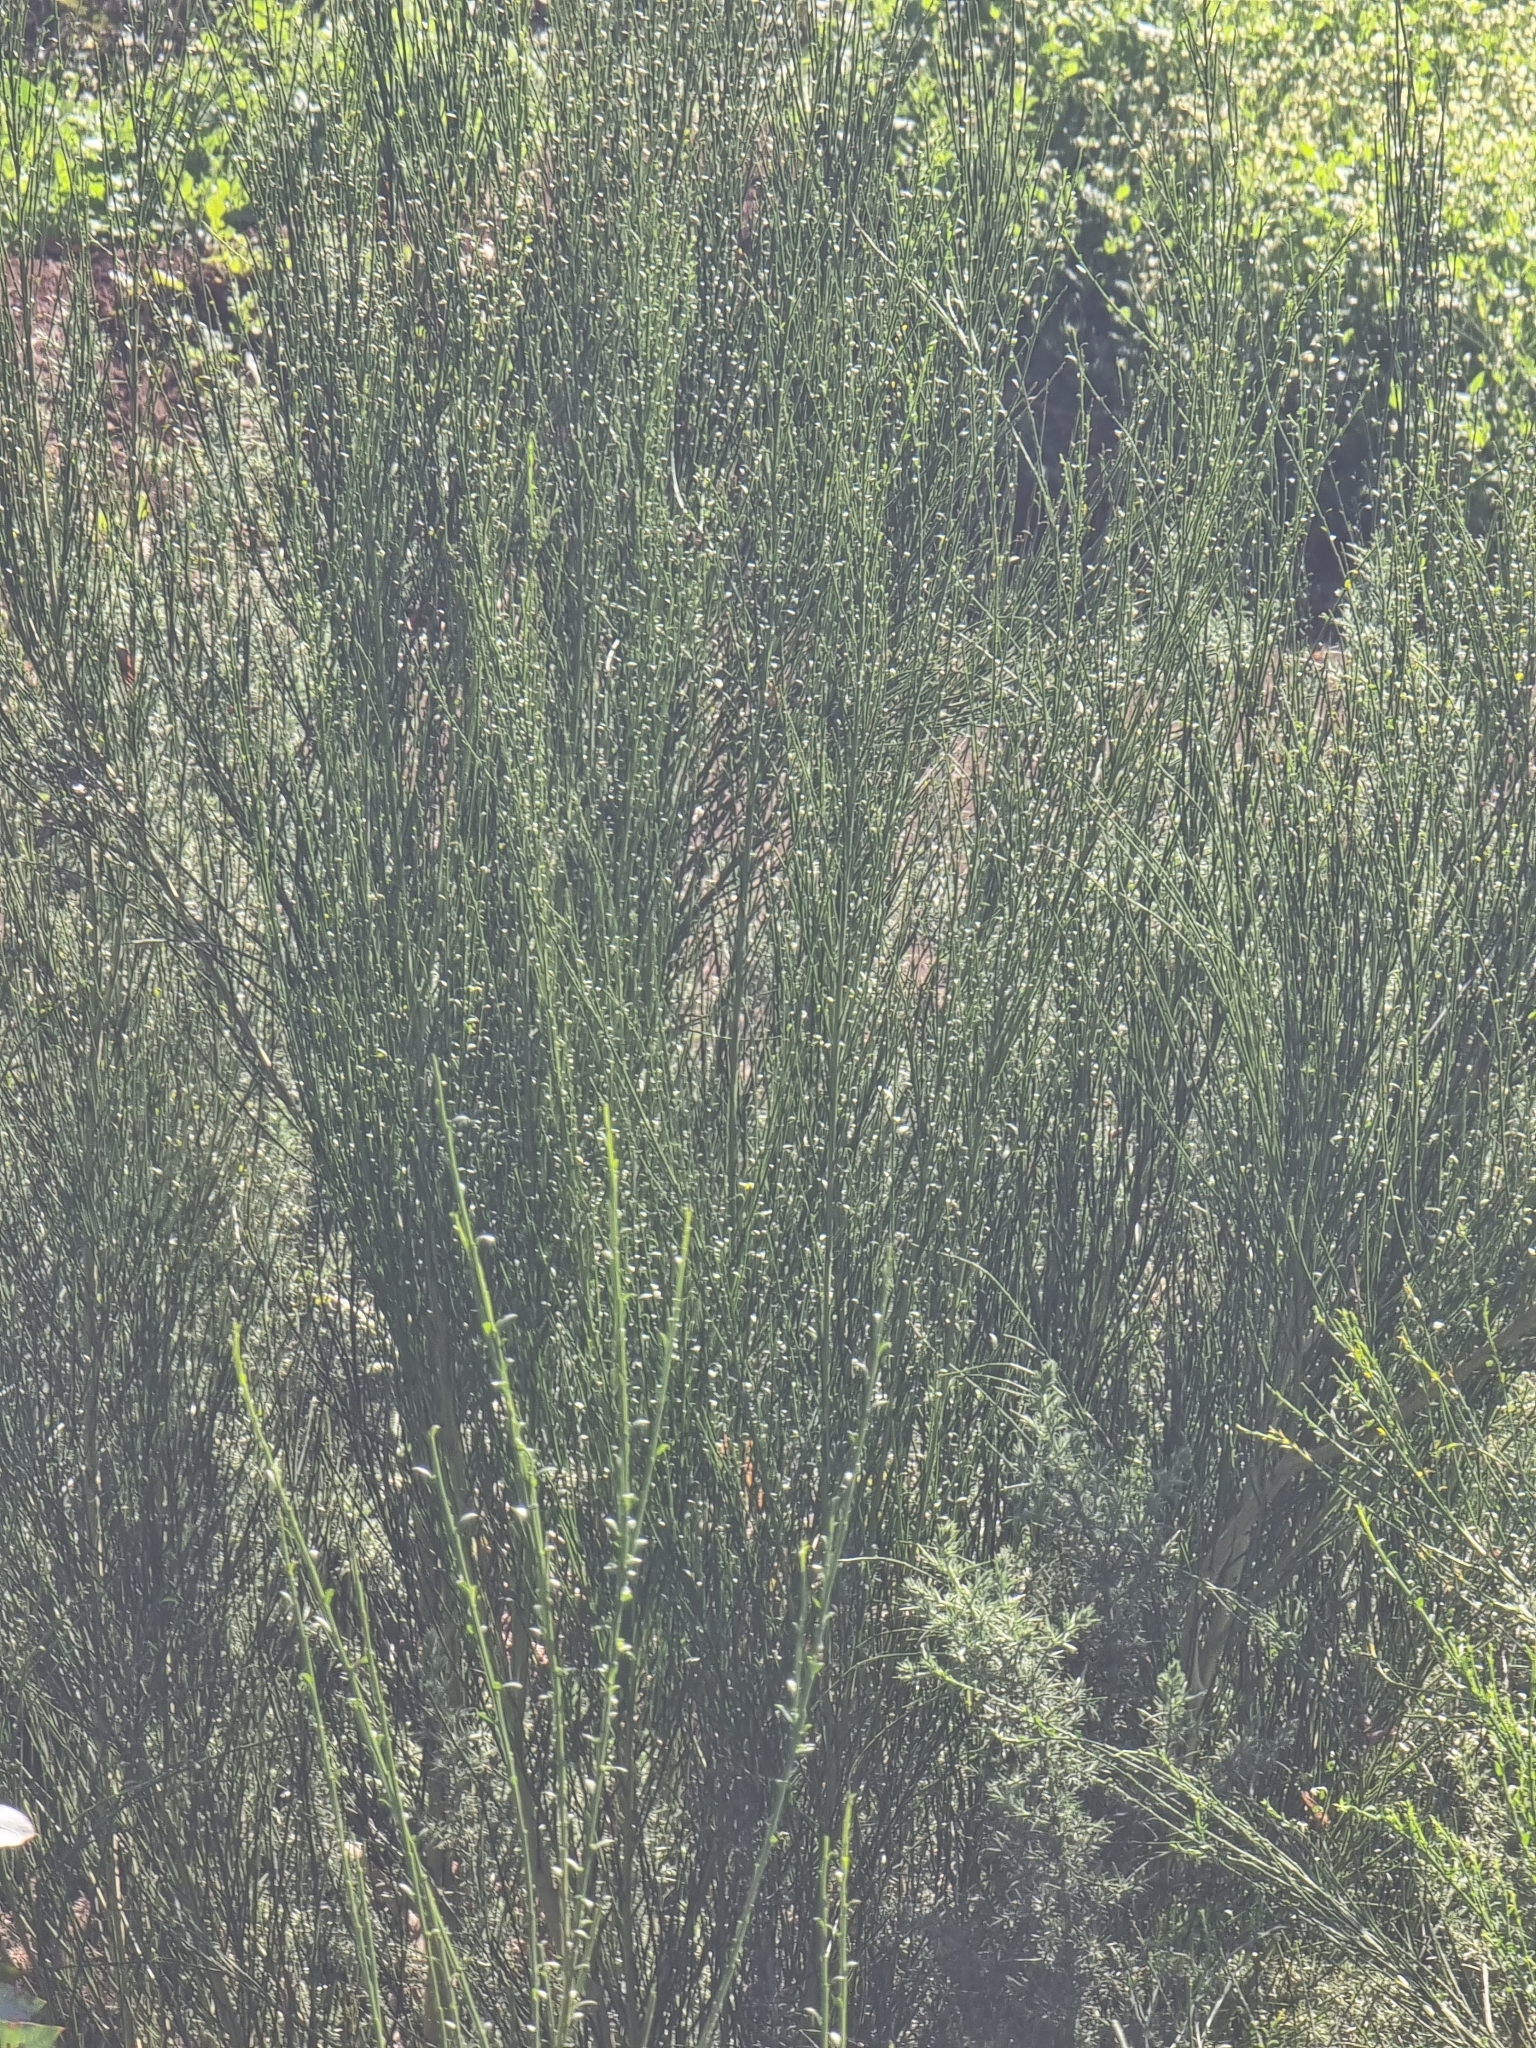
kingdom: Plantae
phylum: Tracheophyta
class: Magnoliopsida
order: Fabales
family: Fabaceae
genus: Cytisus
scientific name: Cytisus scoparius
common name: Scotch broom
